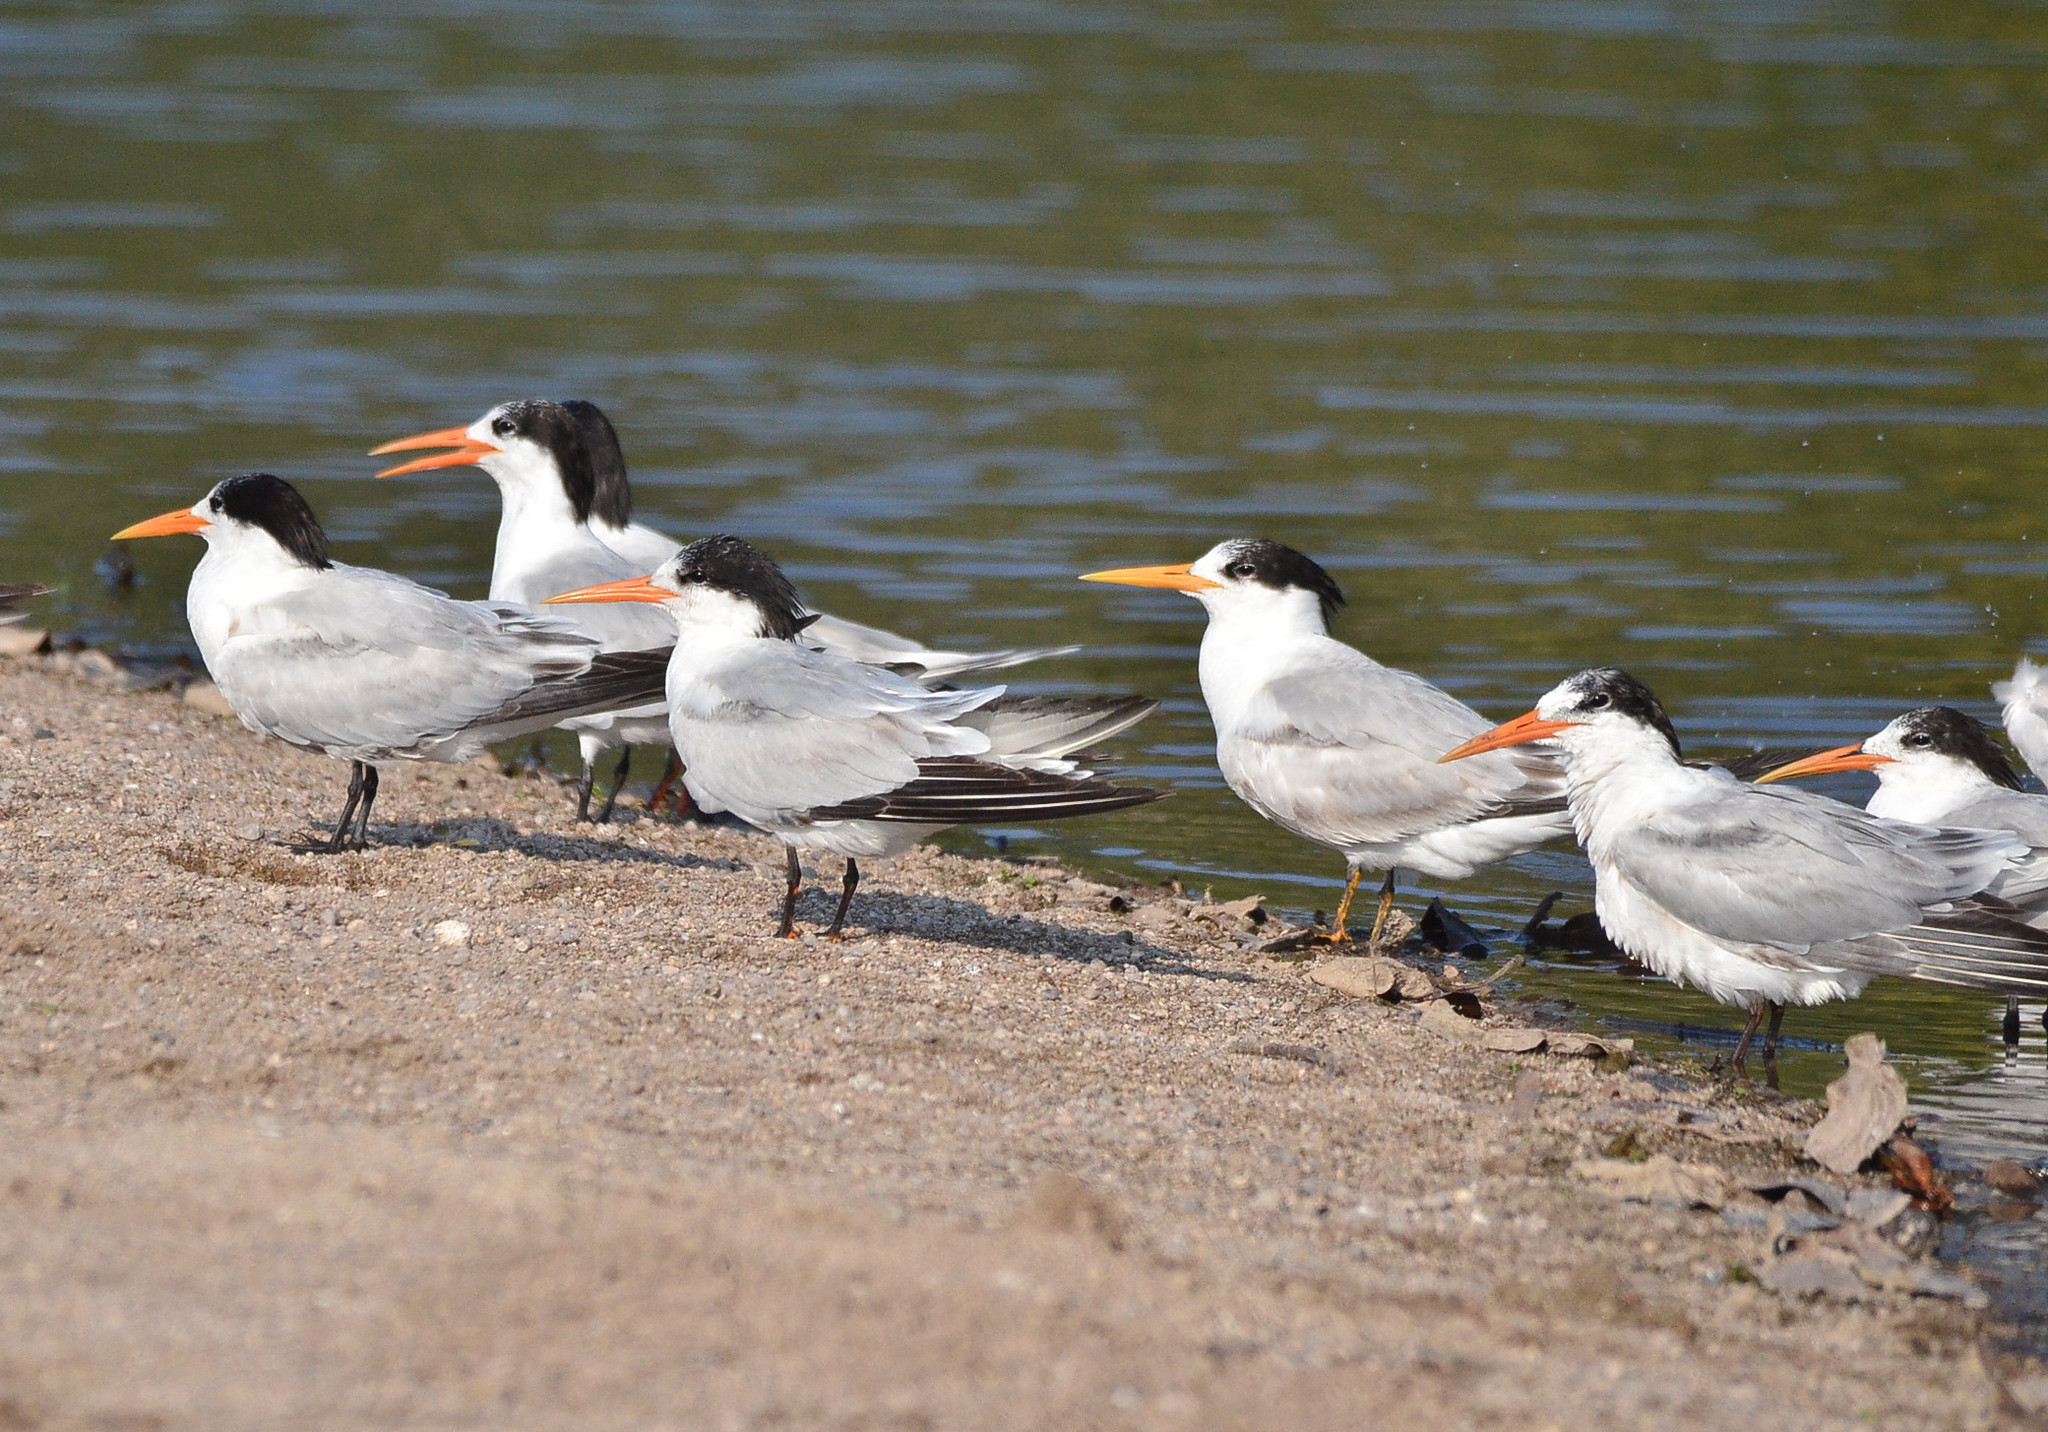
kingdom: Animalia
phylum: Chordata
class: Aves
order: Charadriiformes
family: Laridae
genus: Thalasseus
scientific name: Thalasseus elegans
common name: Elegant tern
